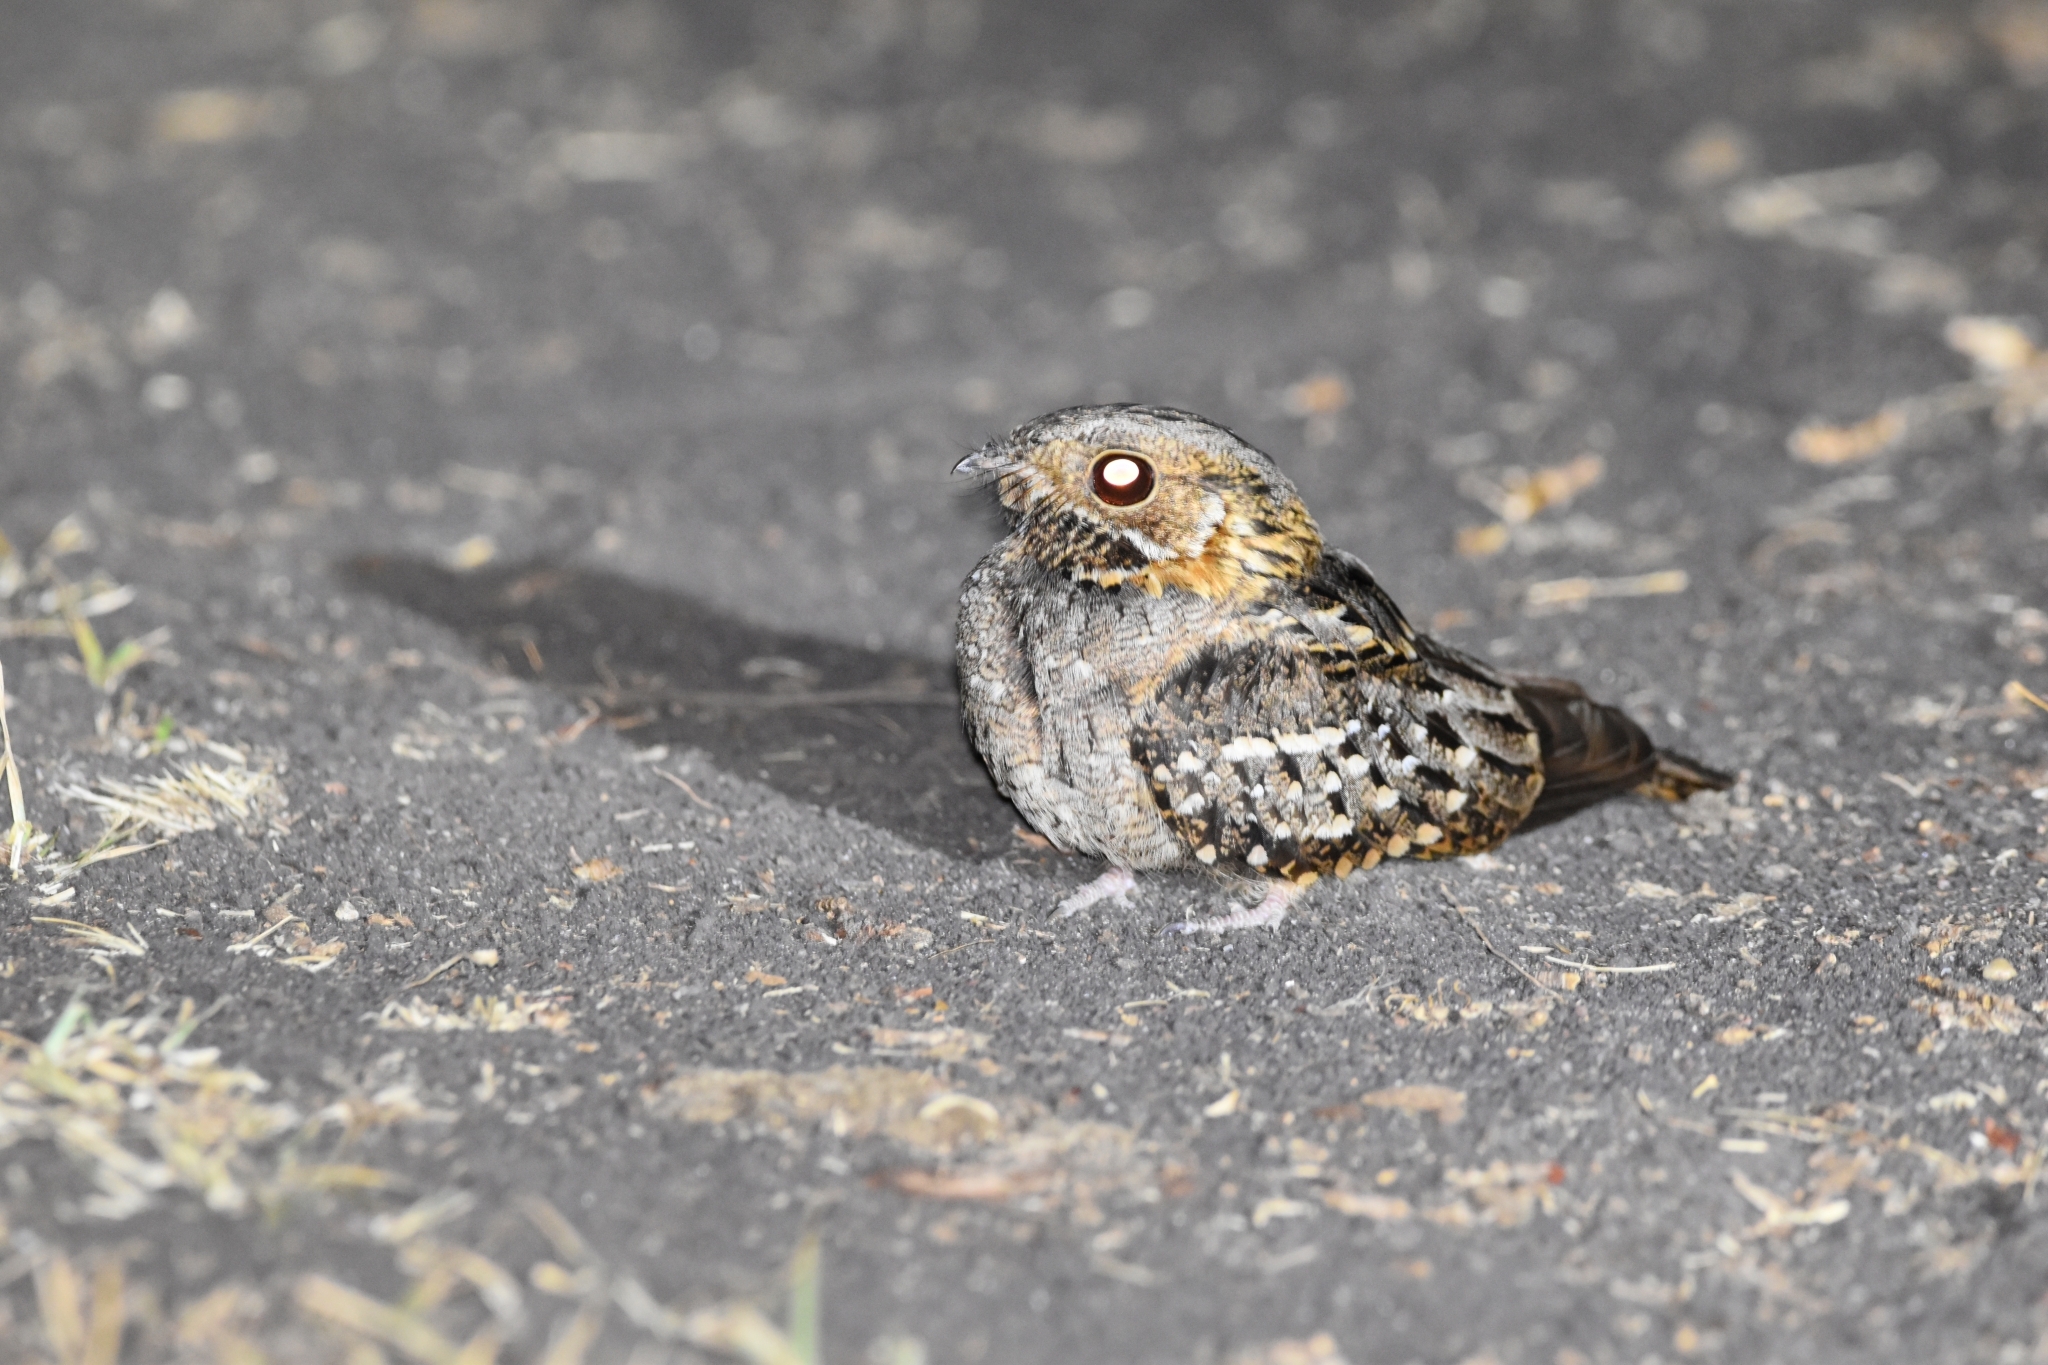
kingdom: Animalia
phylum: Chordata
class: Aves
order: Caprimulgiformes
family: Caprimulgidae
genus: Setopagis
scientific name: Setopagis parvula
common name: Little nightjar
